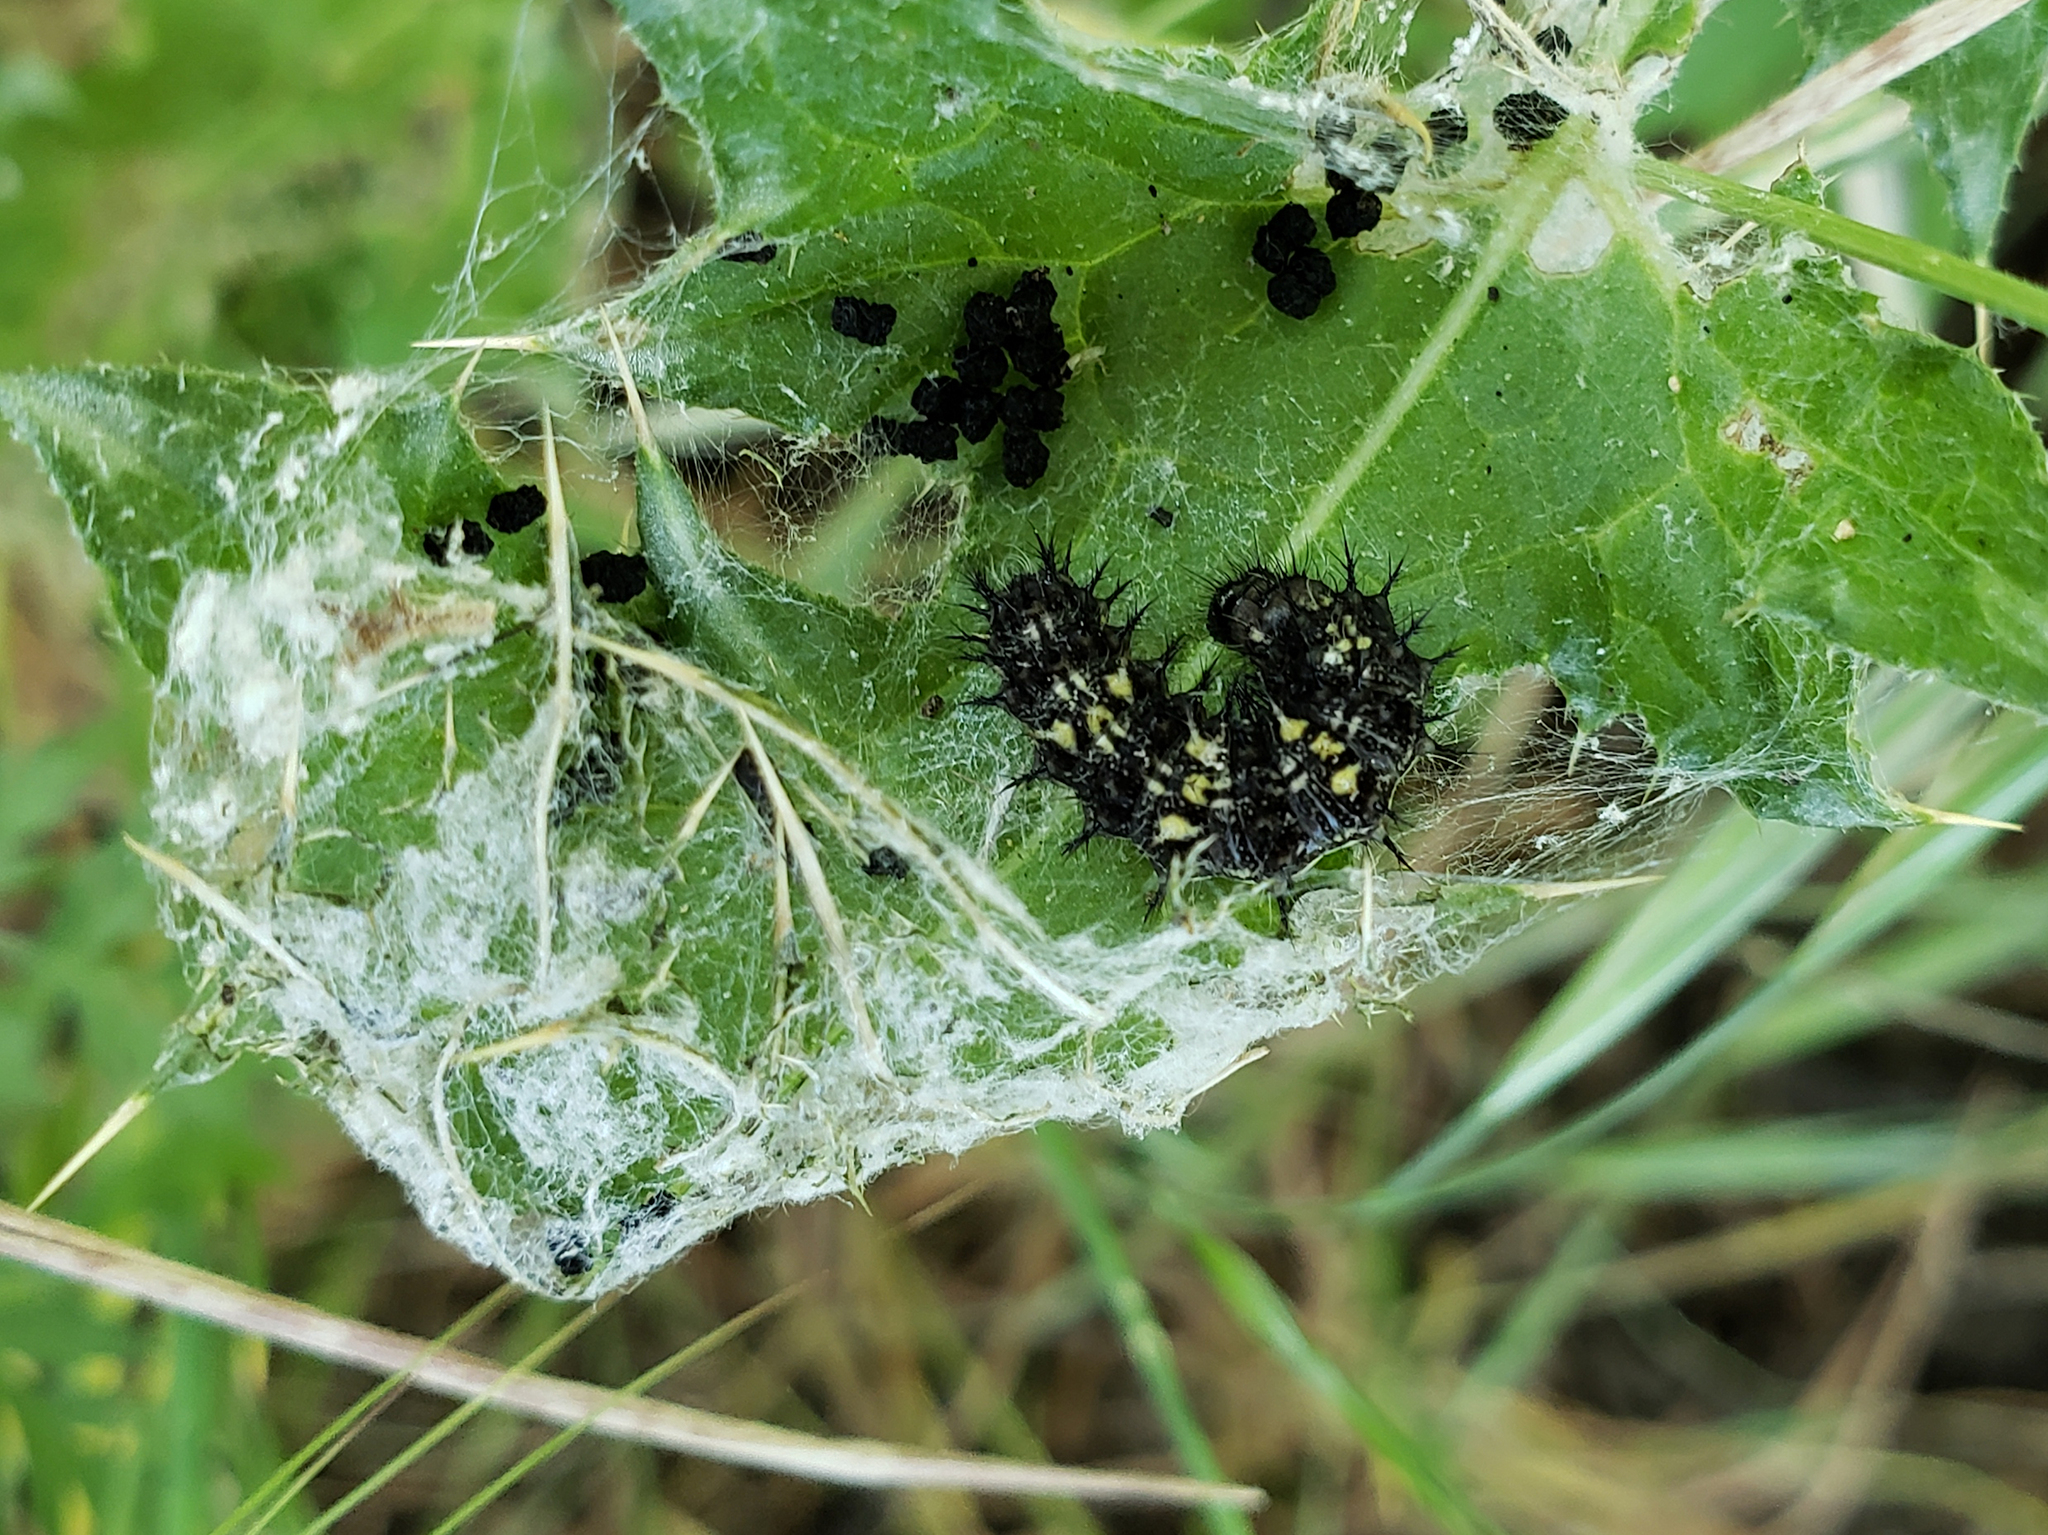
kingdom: Animalia
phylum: Arthropoda
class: Insecta
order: Lepidoptera
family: Nymphalidae
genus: Vanessa
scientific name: Vanessa cardui
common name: Painted lady
